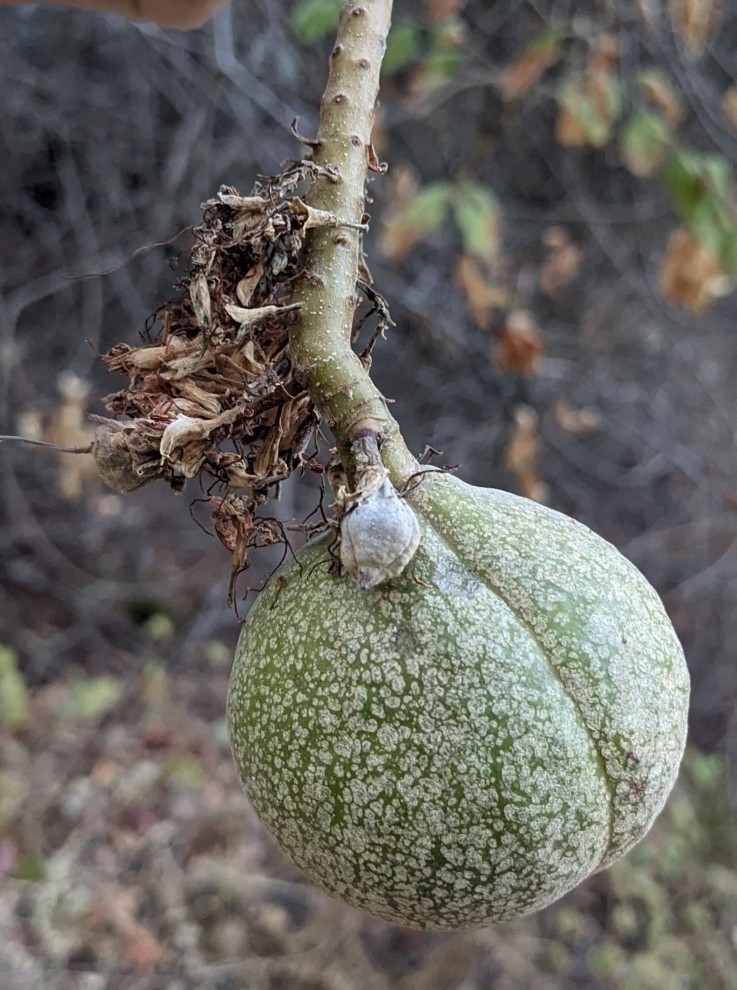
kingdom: Plantae
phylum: Tracheophyta
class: Magnoliopsida
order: Sapindales
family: Sapindaceae
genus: Aesculus
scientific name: Aesculus californica
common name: California buckeye
